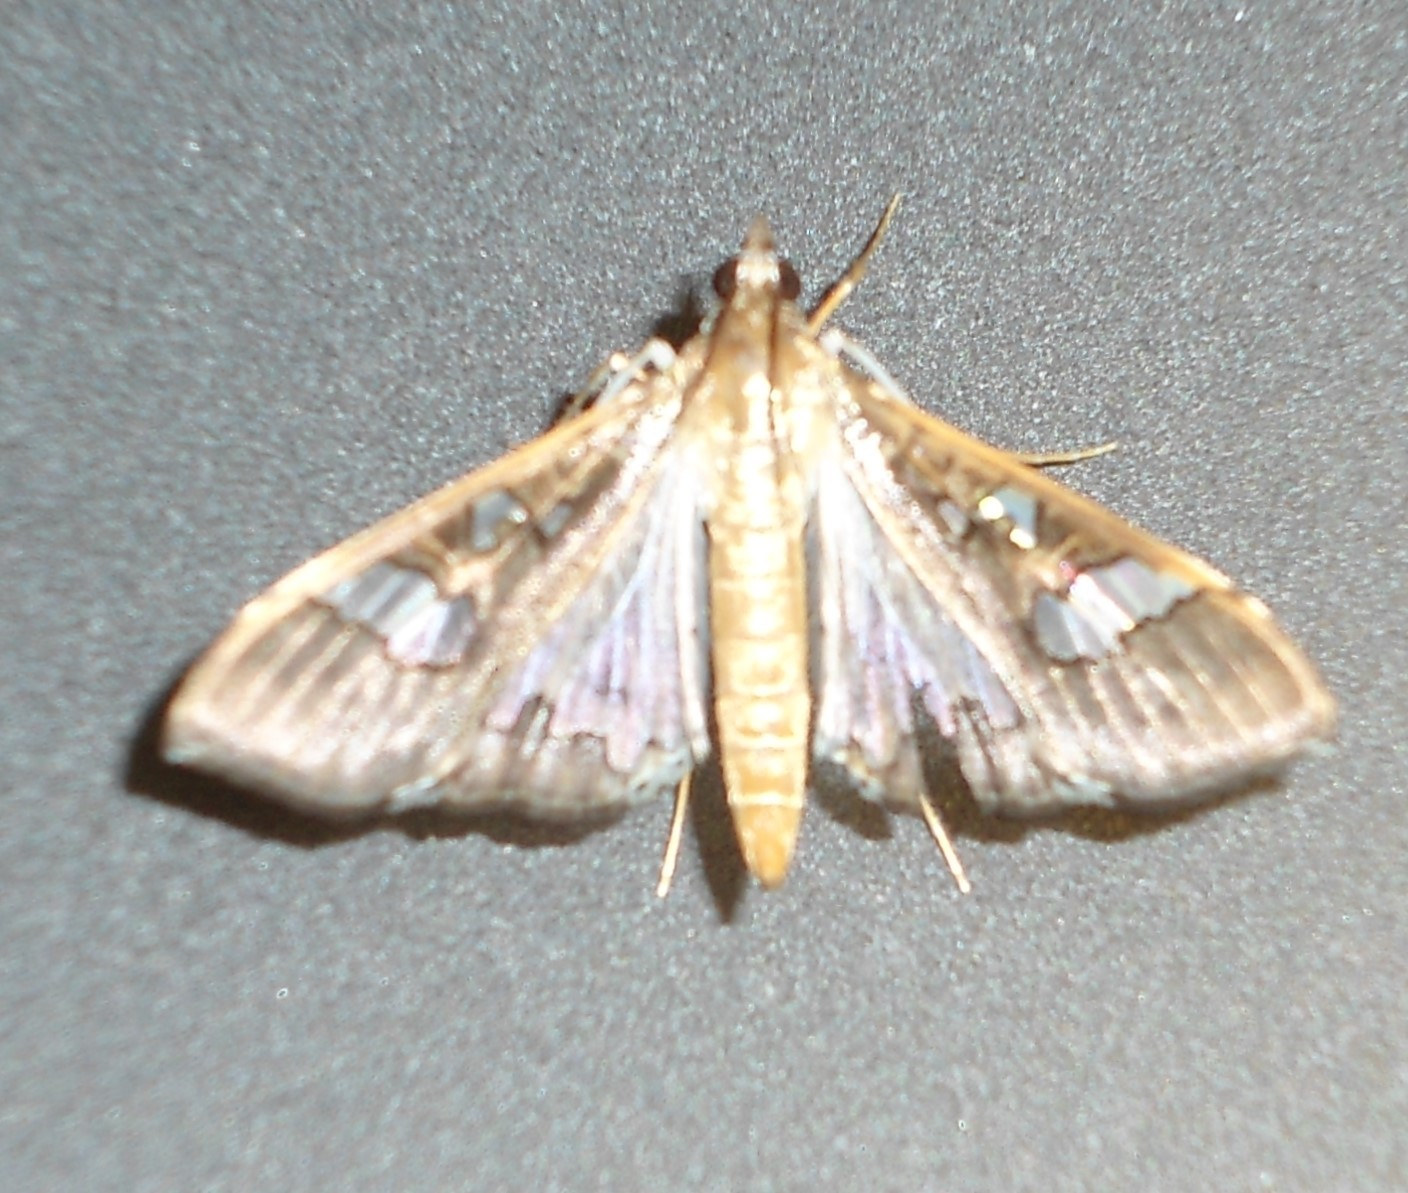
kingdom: Animalia
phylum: Arthropoda
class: Insecta
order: Lepidoptera
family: Crambidae
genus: Maruca
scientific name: Maruca vitrata
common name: Maruca pod borer
